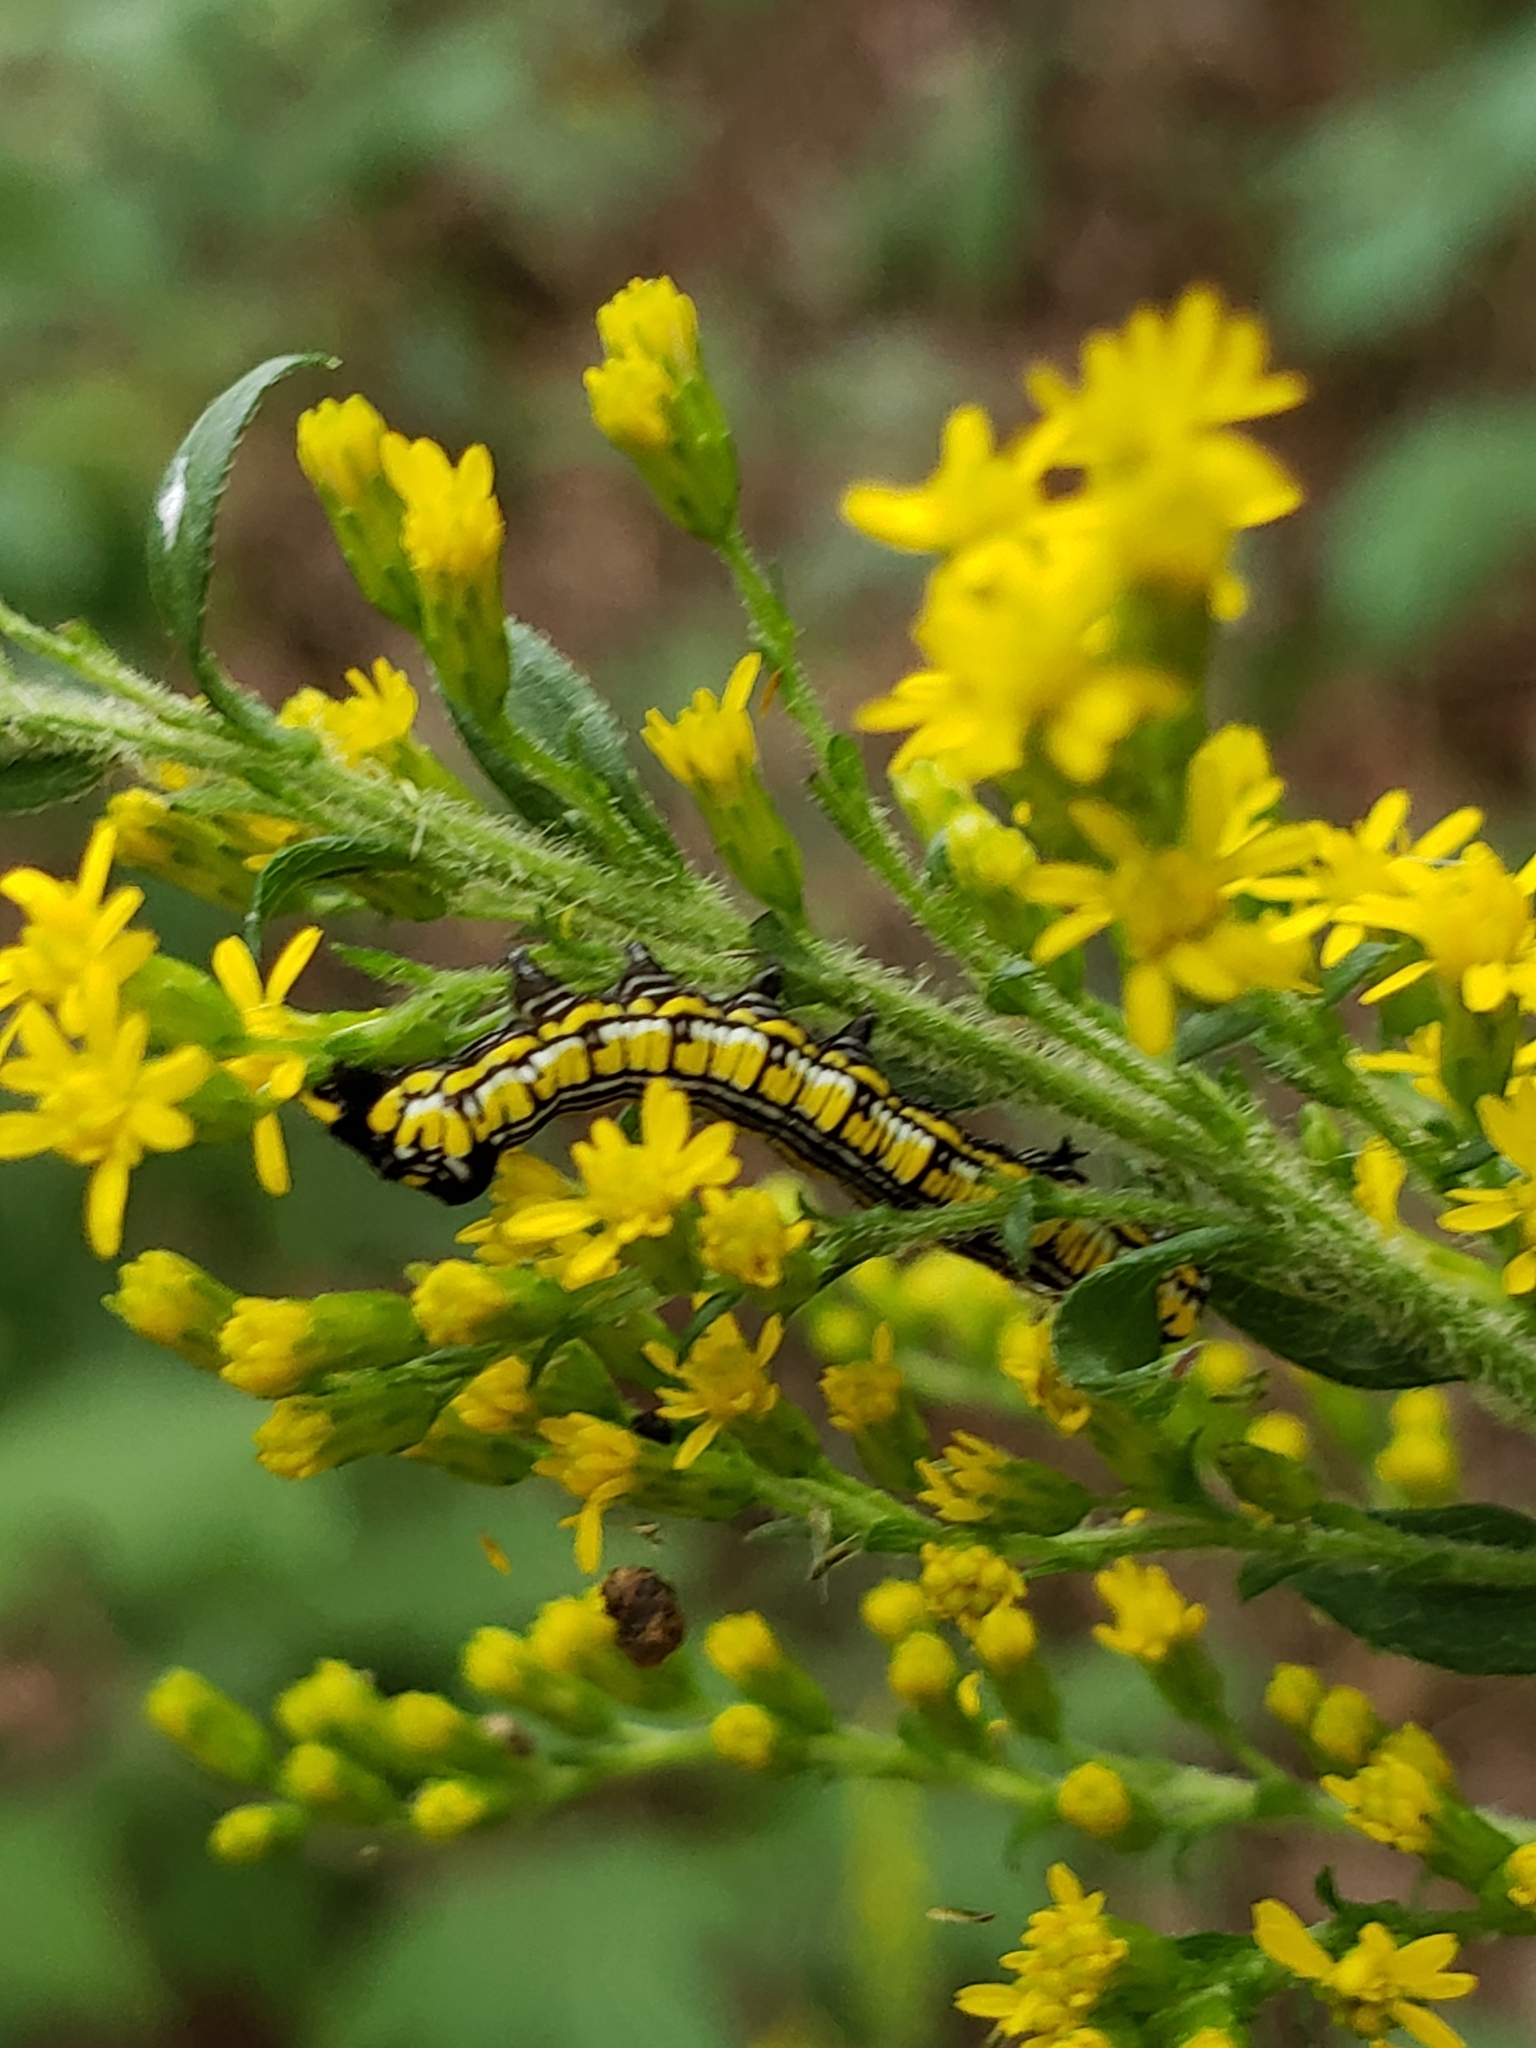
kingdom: Animalia
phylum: Arthropoda
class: Insecta
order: Lepidoptera
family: Noctuidae
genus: Cucullia
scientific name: Cucullia convexipennis
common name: Brown-hooded owlet
